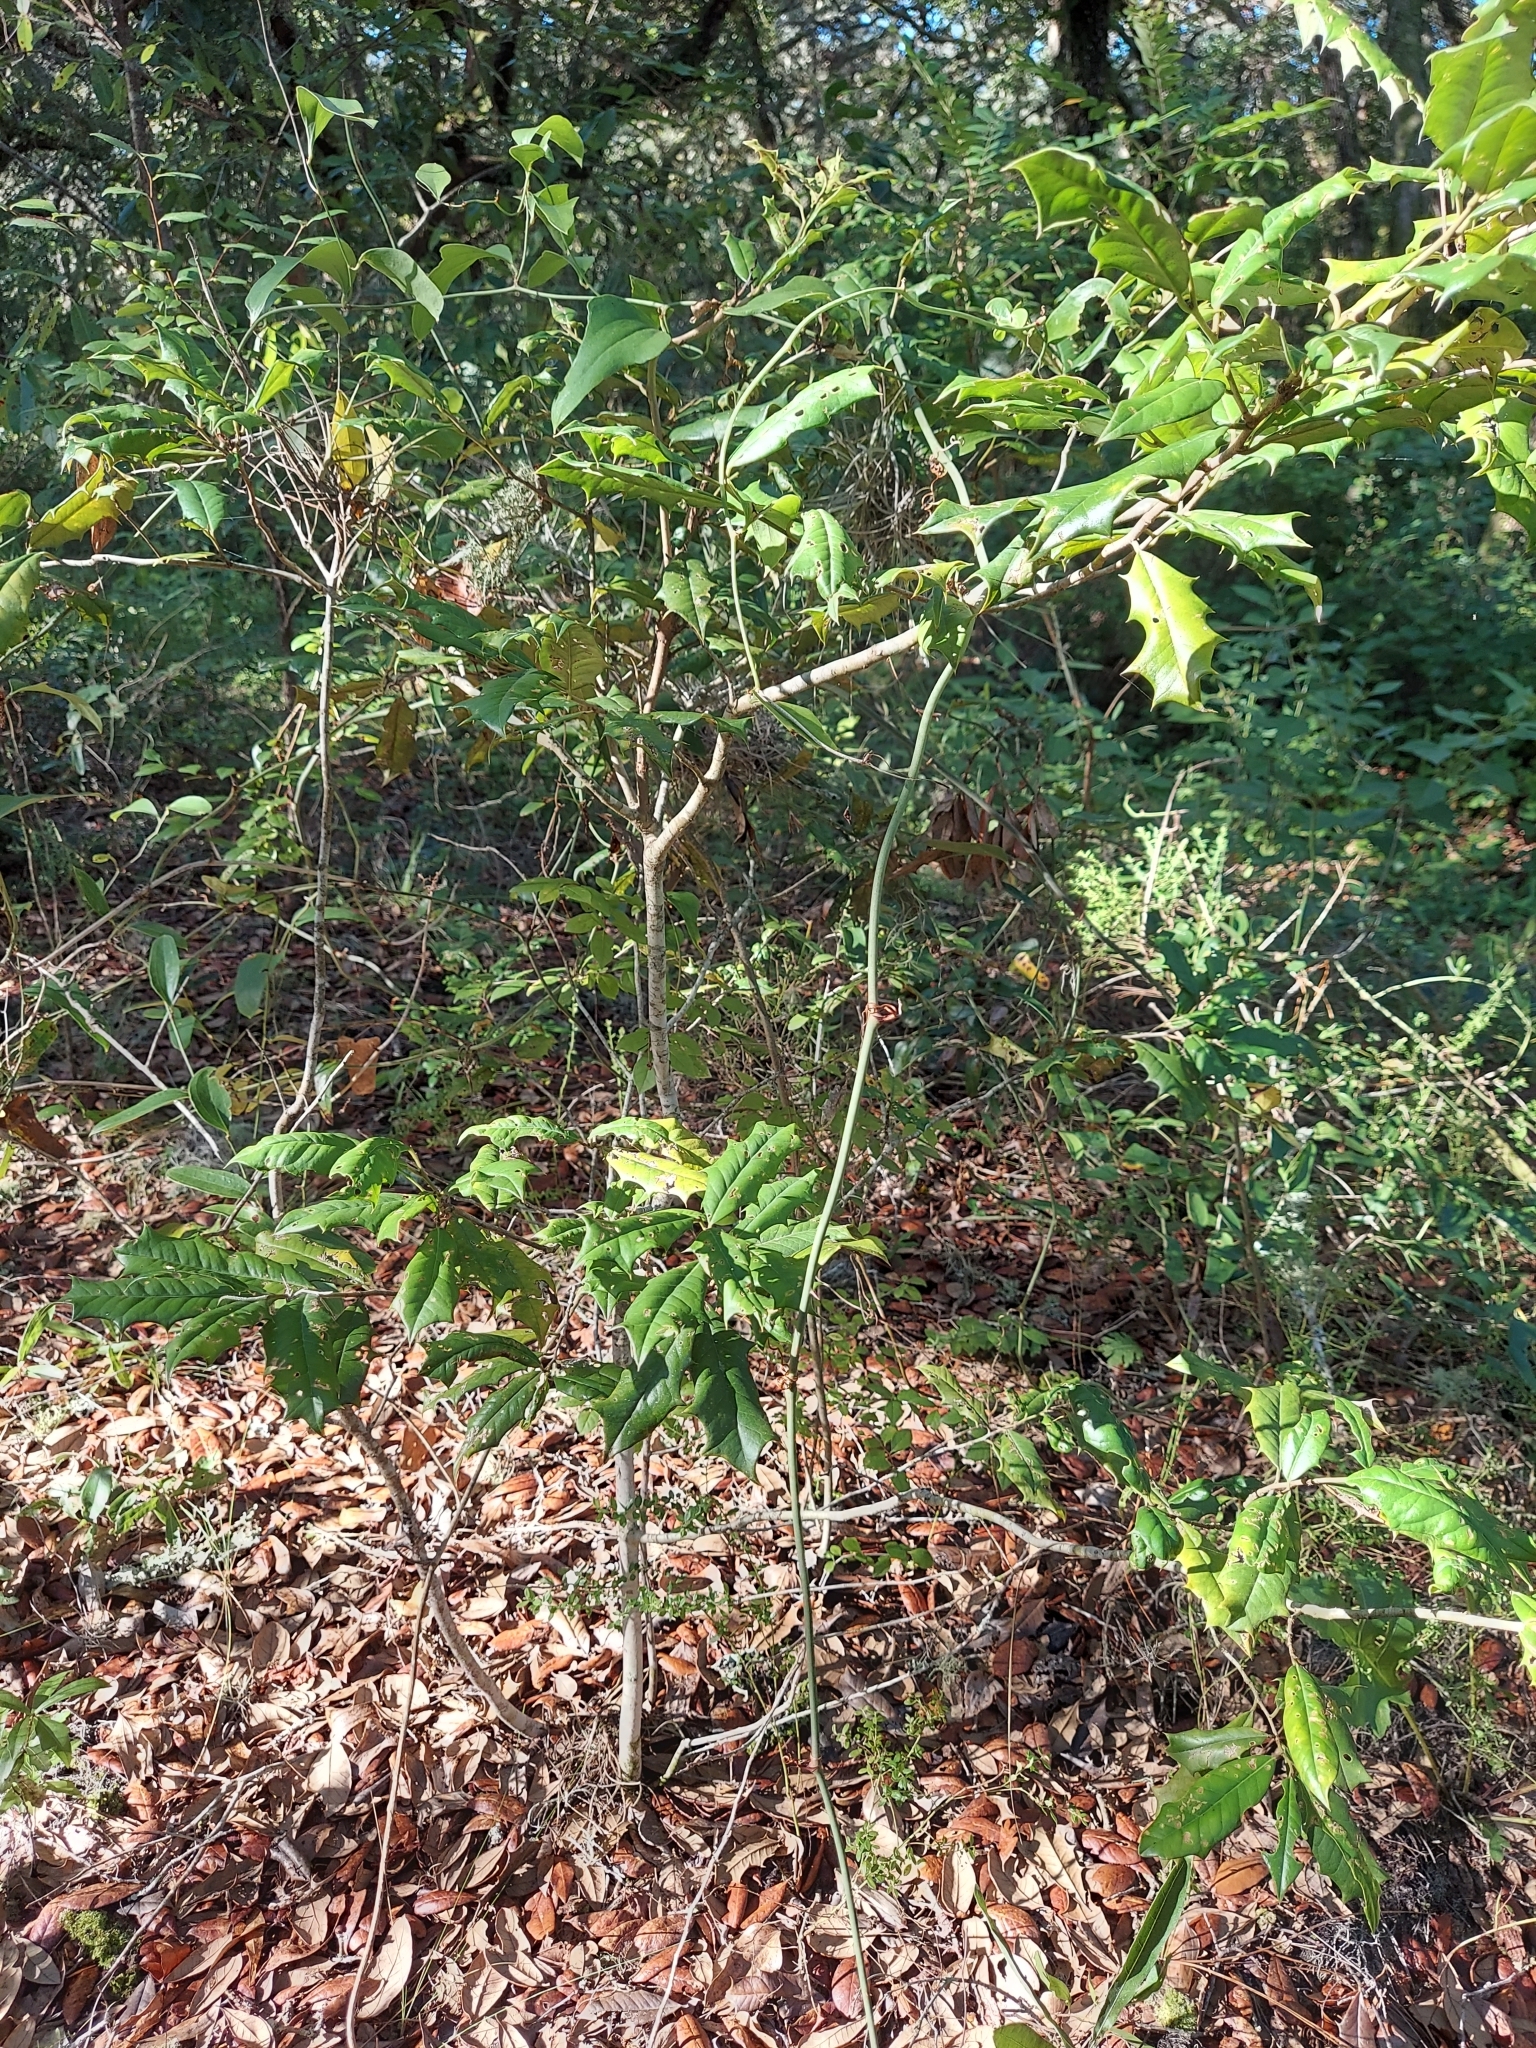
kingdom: Plantae
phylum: Tracheophyta
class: Magnoliopsida
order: Aquifoliales
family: Aquifoliaceae
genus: Ilex
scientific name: Ilex opaca
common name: American holly
